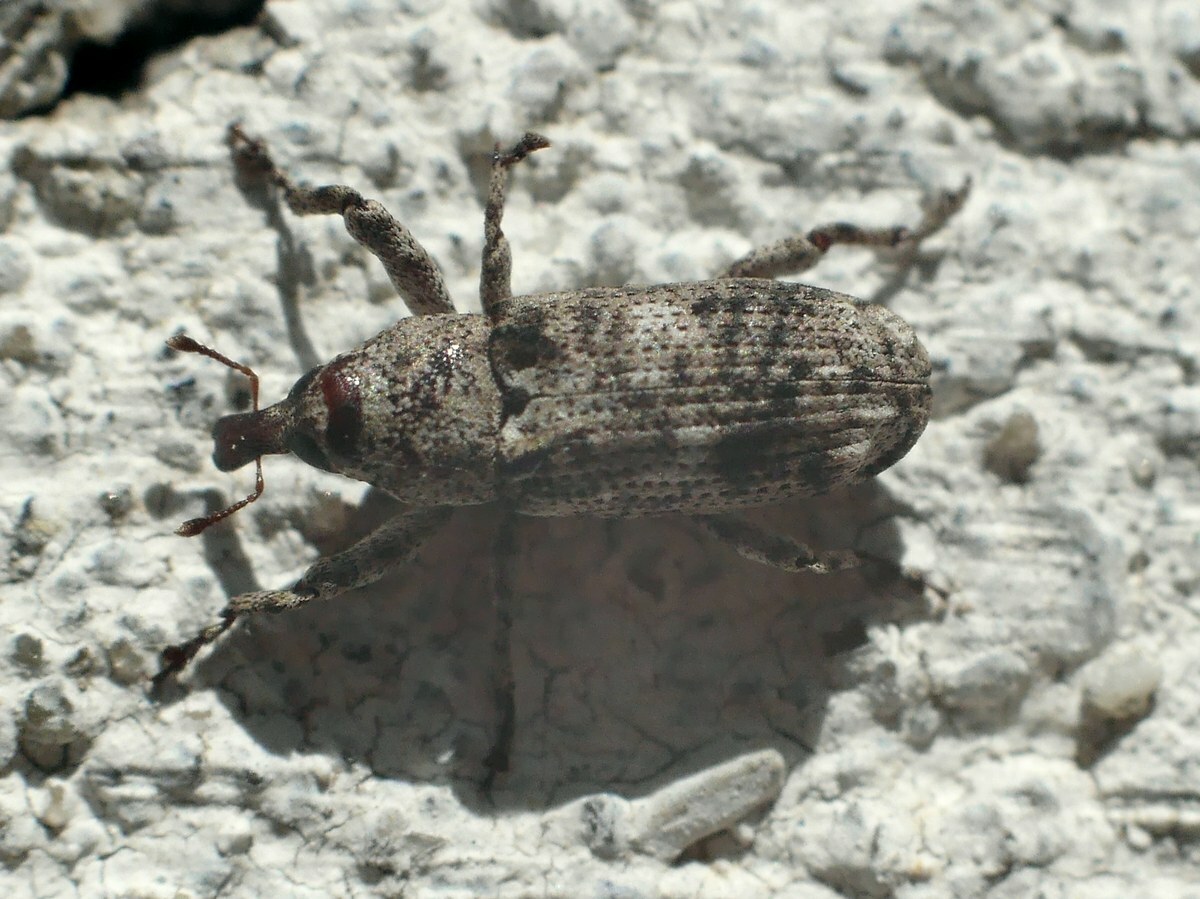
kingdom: Animalia
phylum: Arthropoda
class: Insecta
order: Coleoptera
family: Curculionidae
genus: Gasterocercus
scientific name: Gasterocercus depressirostris
